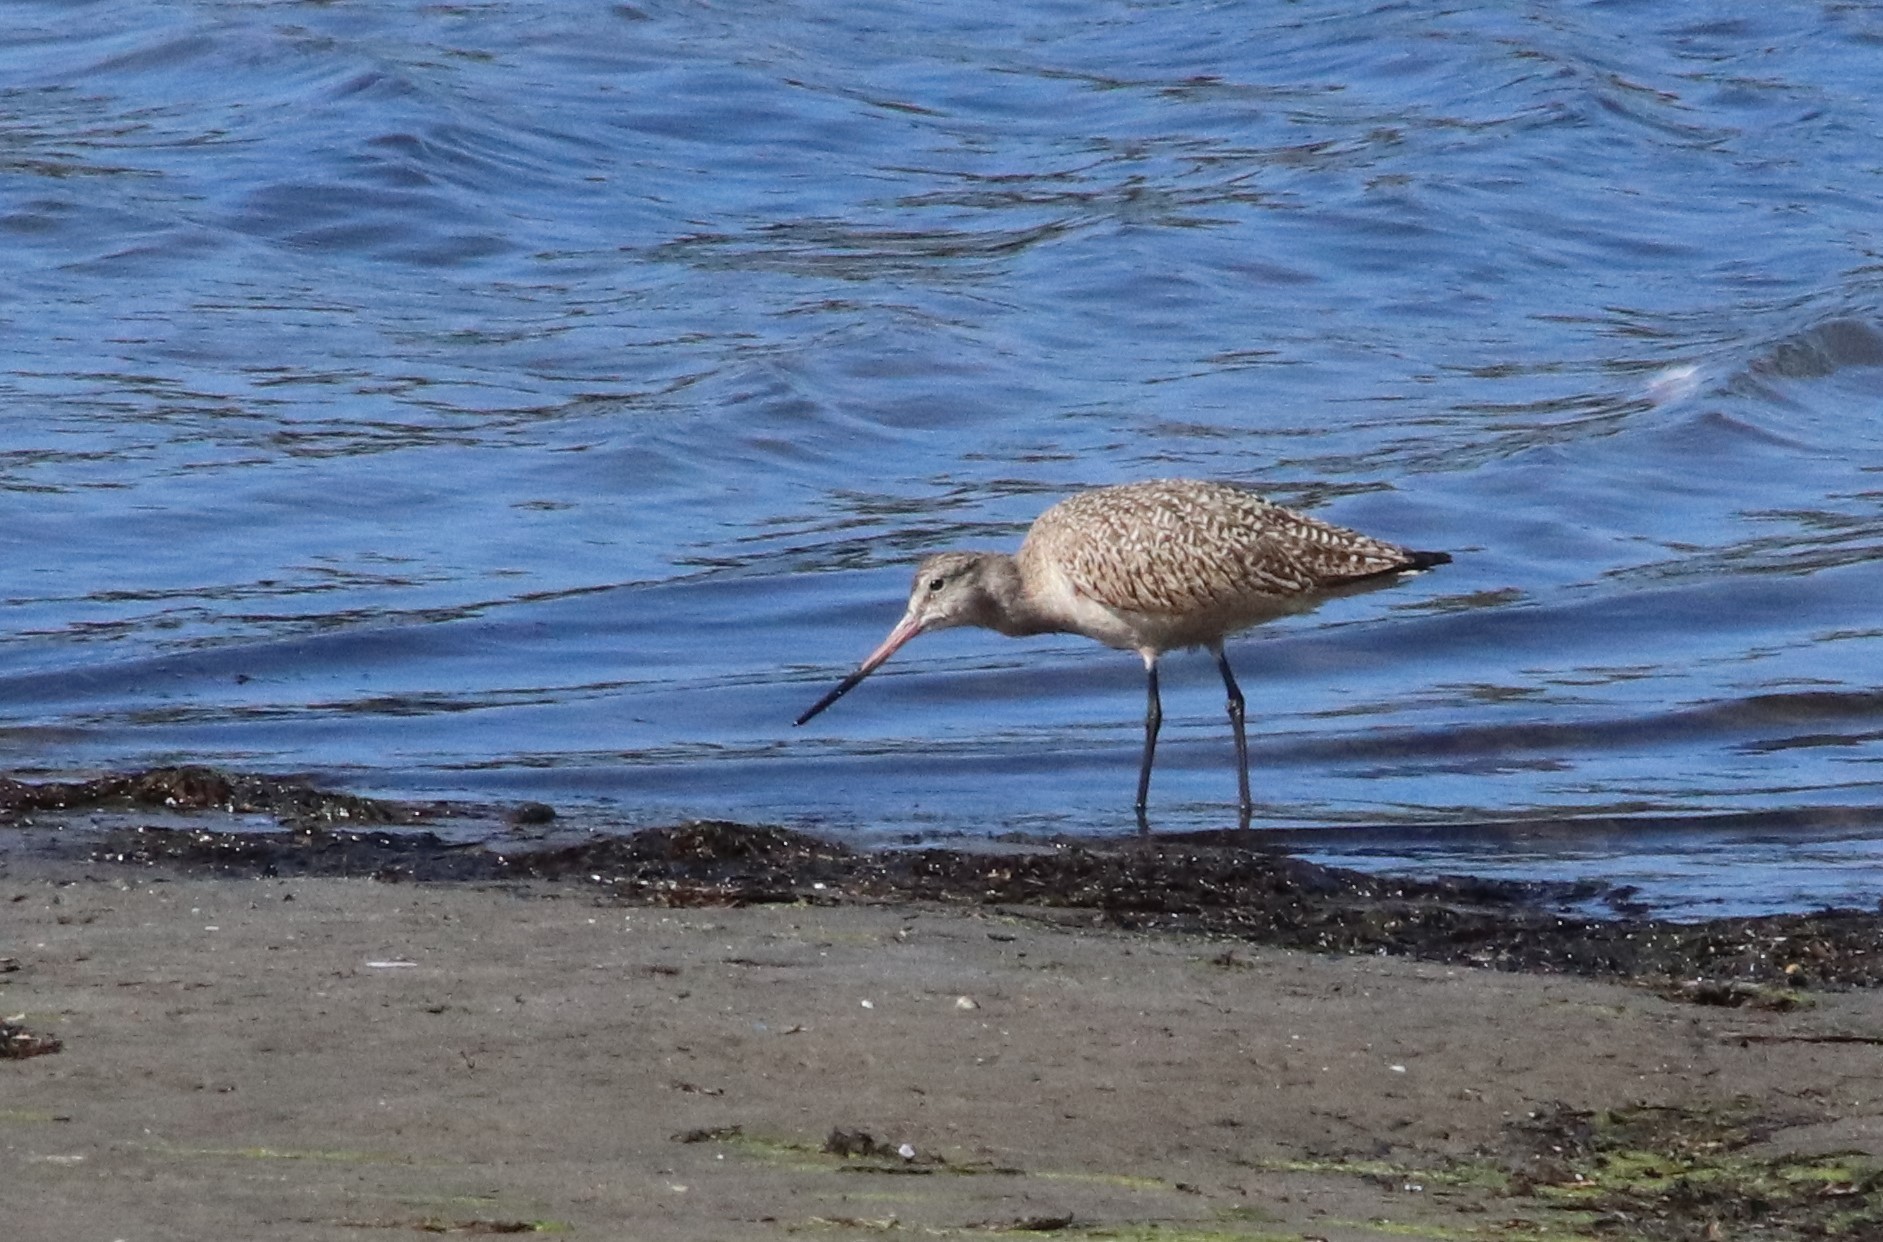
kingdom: Animalia
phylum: Chordata
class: Aves
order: Charadriiformes
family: Scolopacidae
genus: Limosa
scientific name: Limosa fedoa
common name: Marbled godwit
